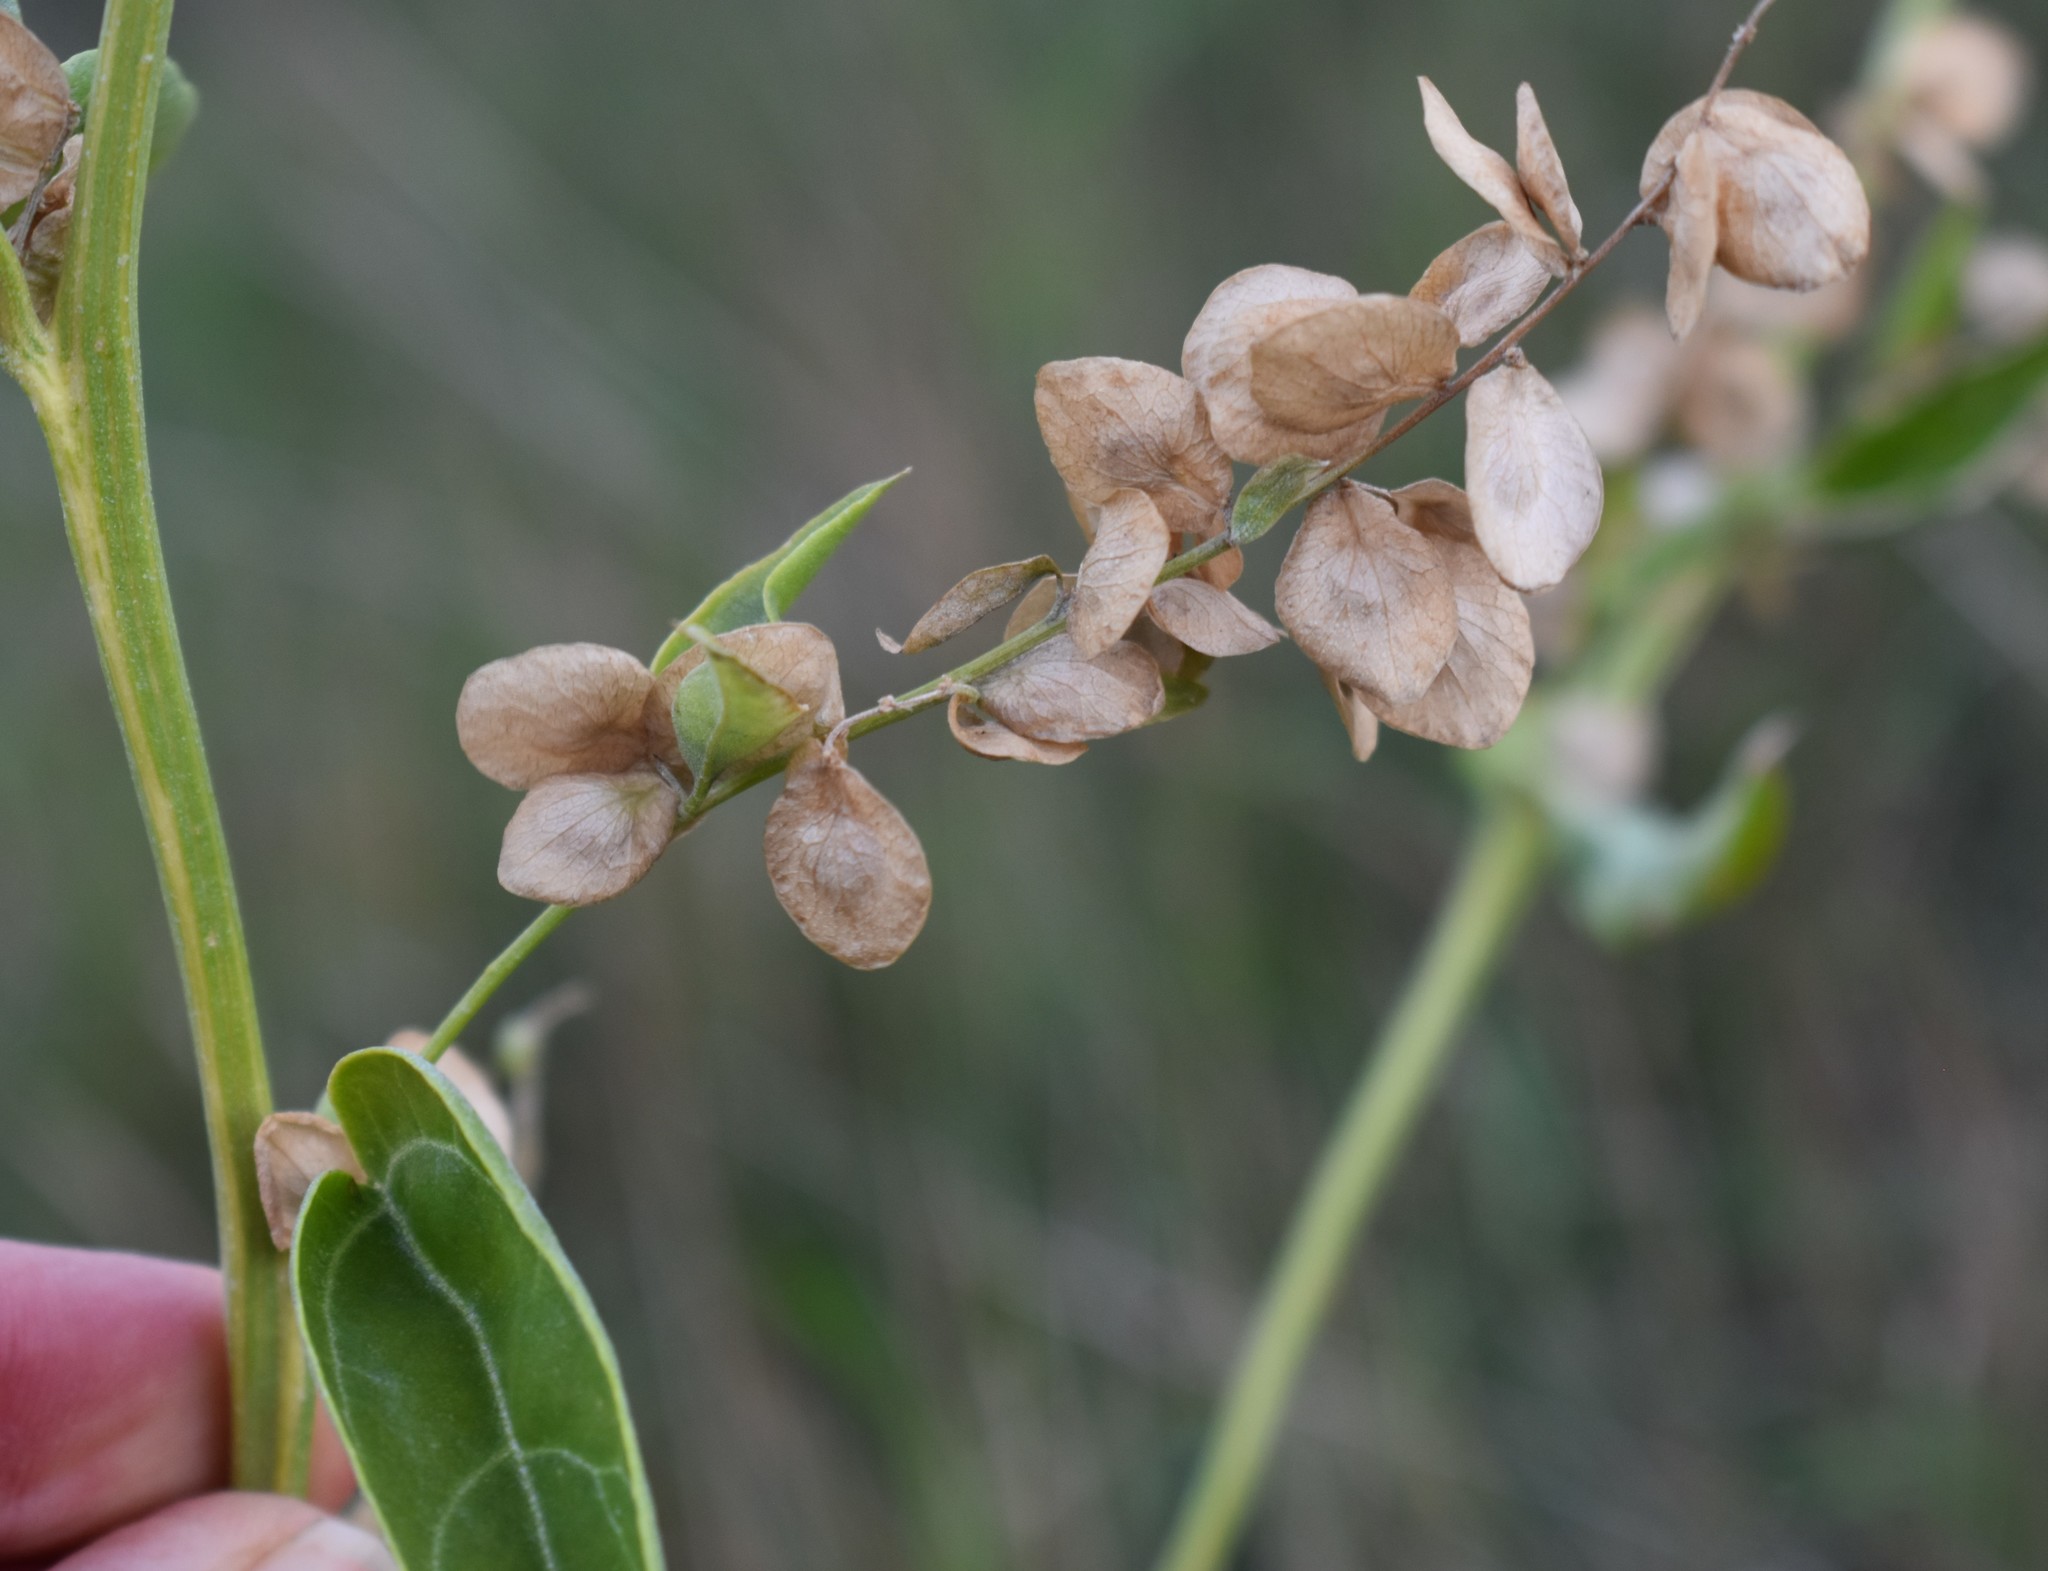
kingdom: Plantae
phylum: Tracheophyta
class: Magnoliopsida
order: Caryophyllales
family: Amaranthaceae
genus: Atriplex
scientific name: Atriplex hortensis
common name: Garden orache
